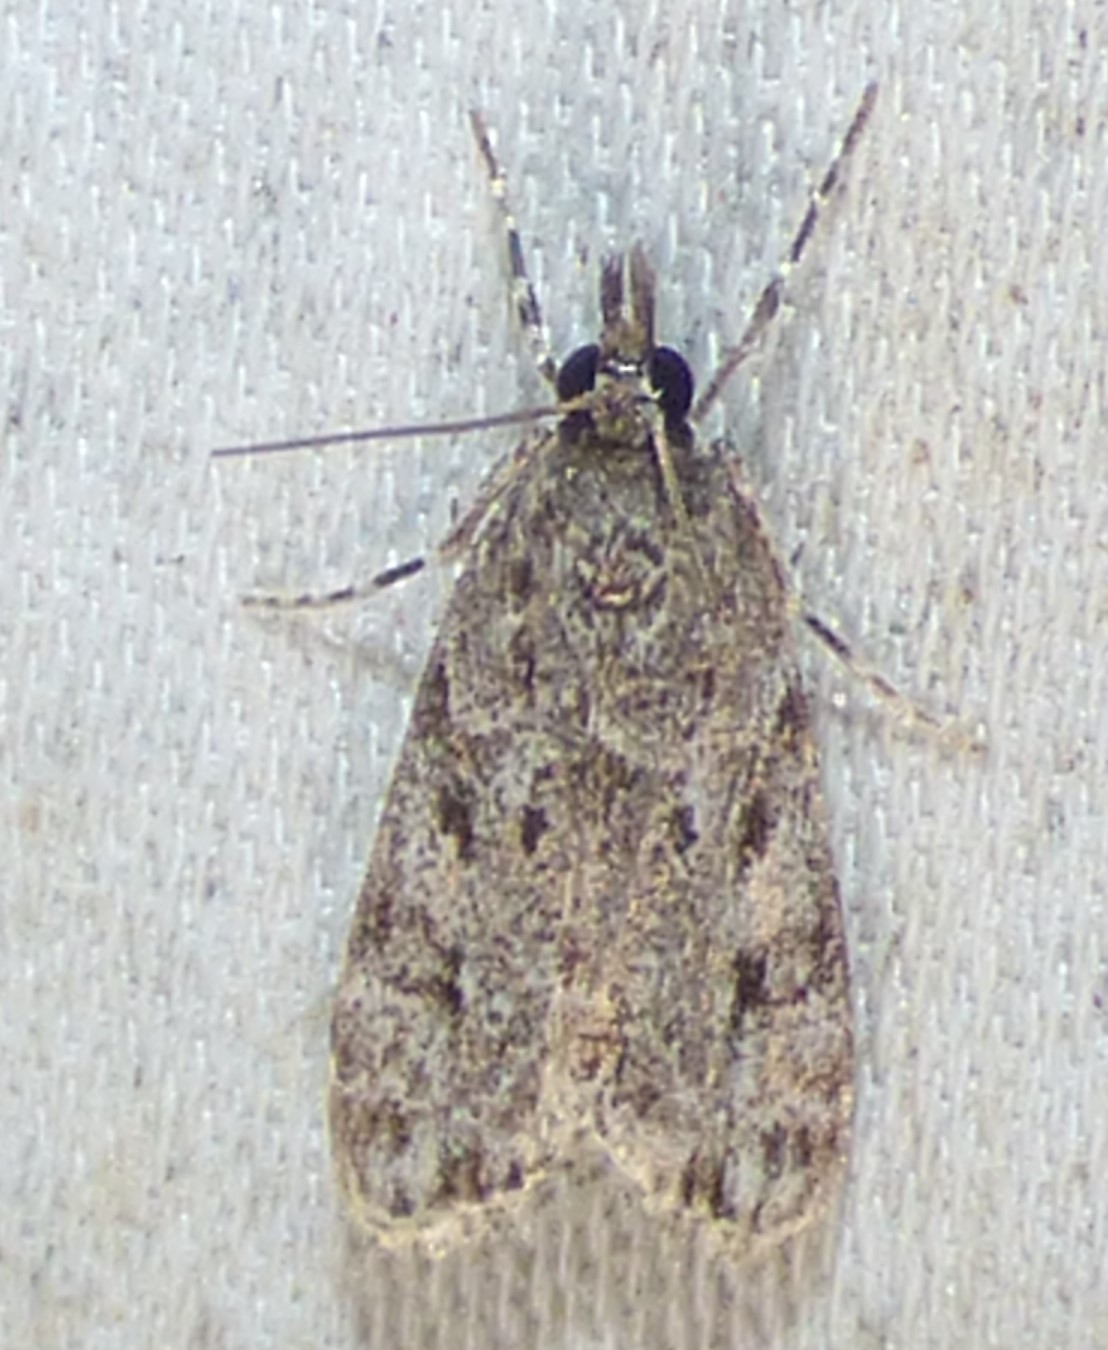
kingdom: Animalia
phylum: Arthropoda
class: Insecta
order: Lepidoptera
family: Crambidae
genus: Eudonia
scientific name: Eudonia heterosalis
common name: Mcdunnough's eudonia
